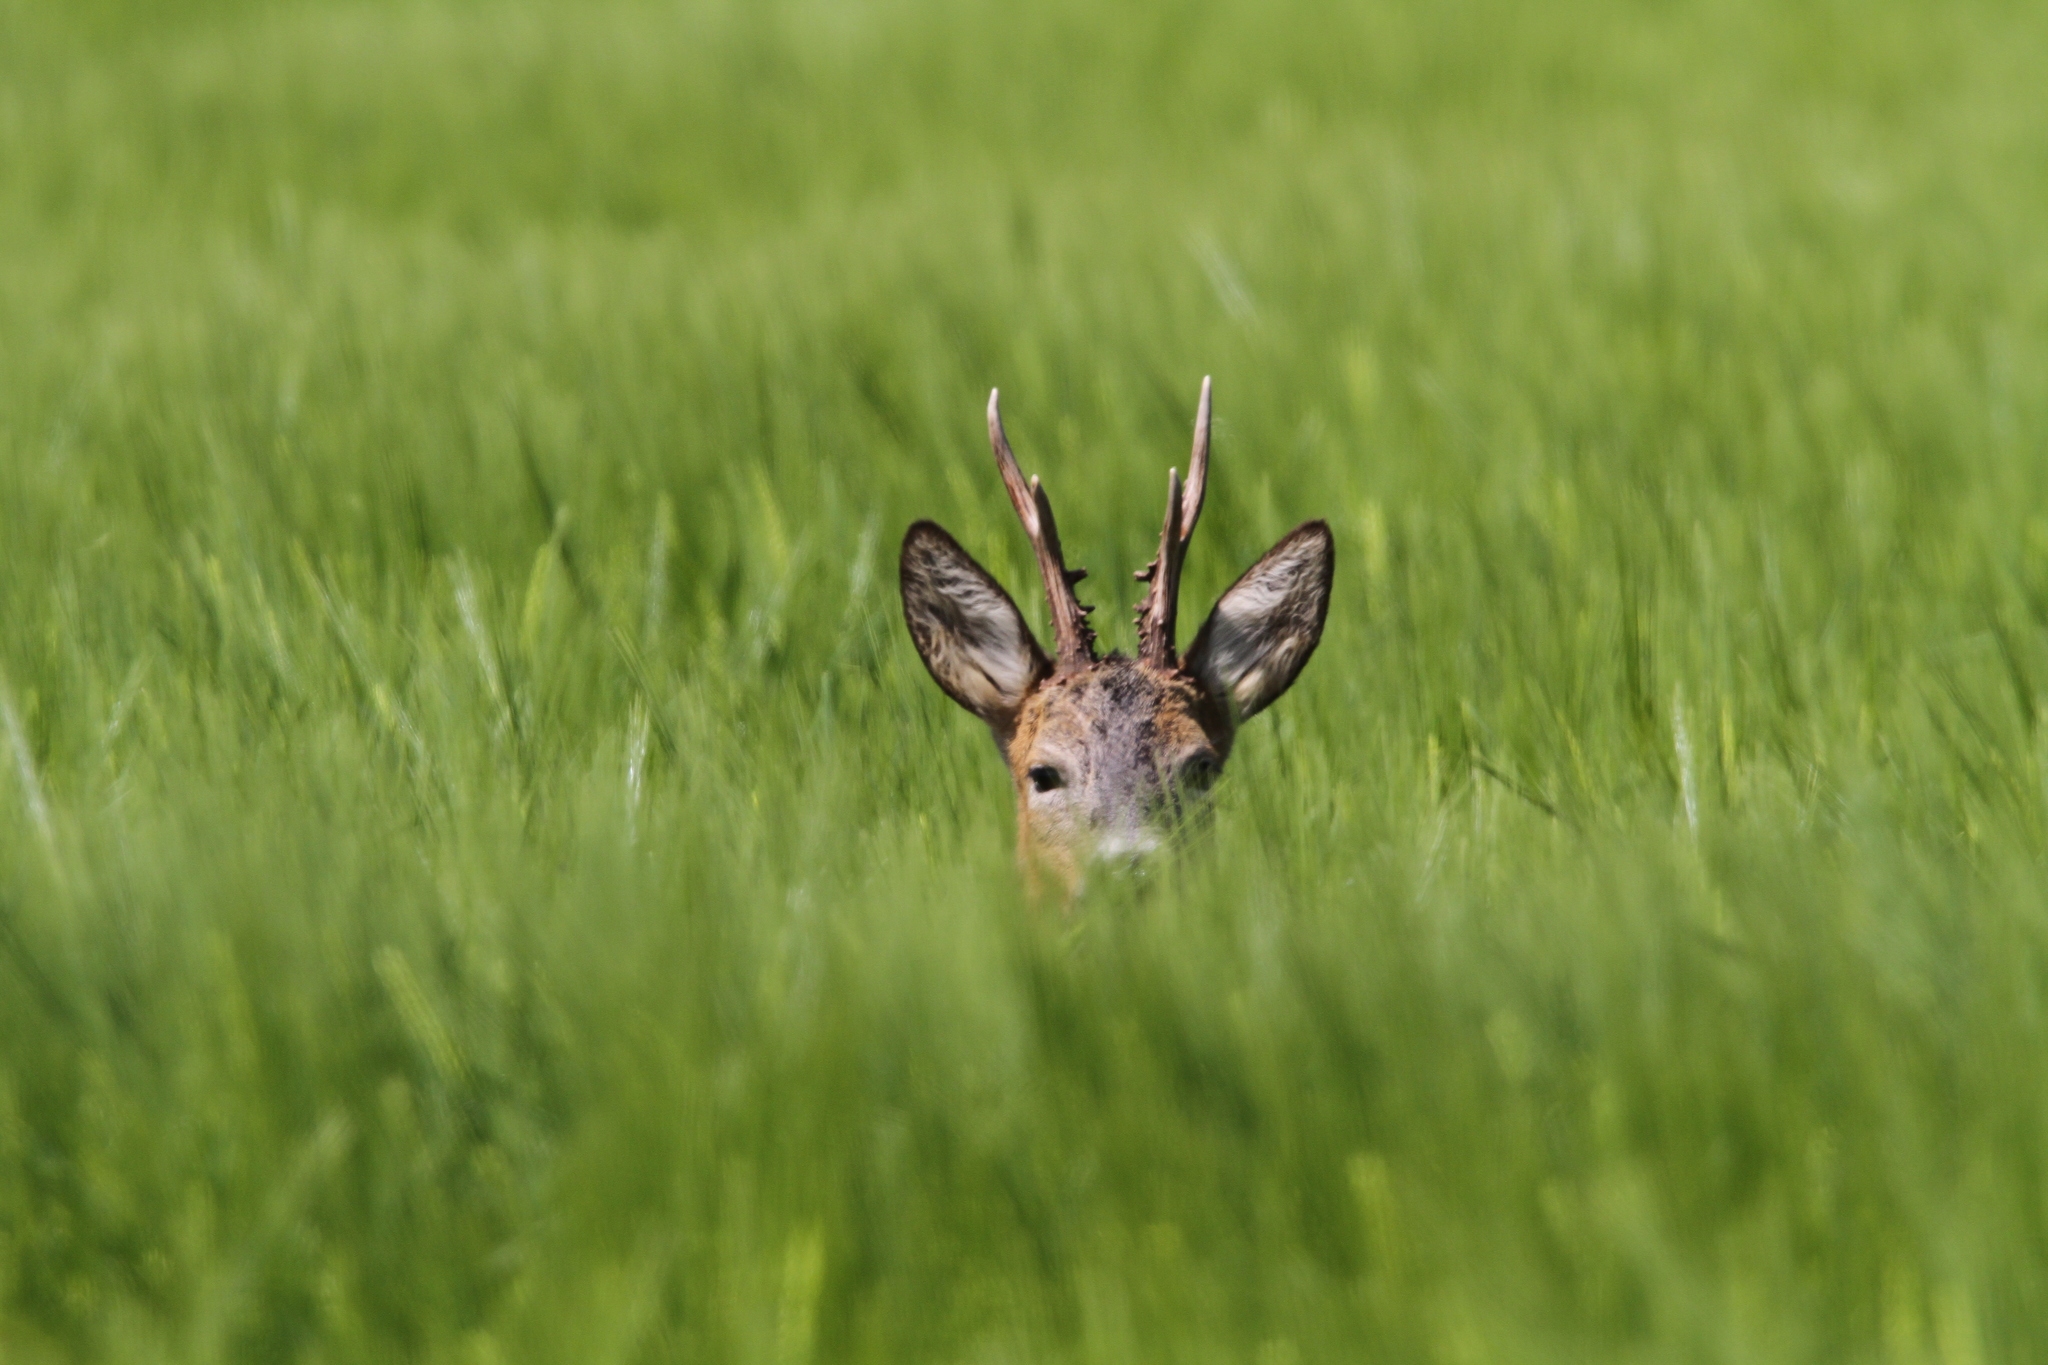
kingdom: Animalia
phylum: Chordata
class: Mammalia
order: Artiodactyla
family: Cervidae
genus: Capreolus
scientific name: Capreolus capreolus
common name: Western roe deer
